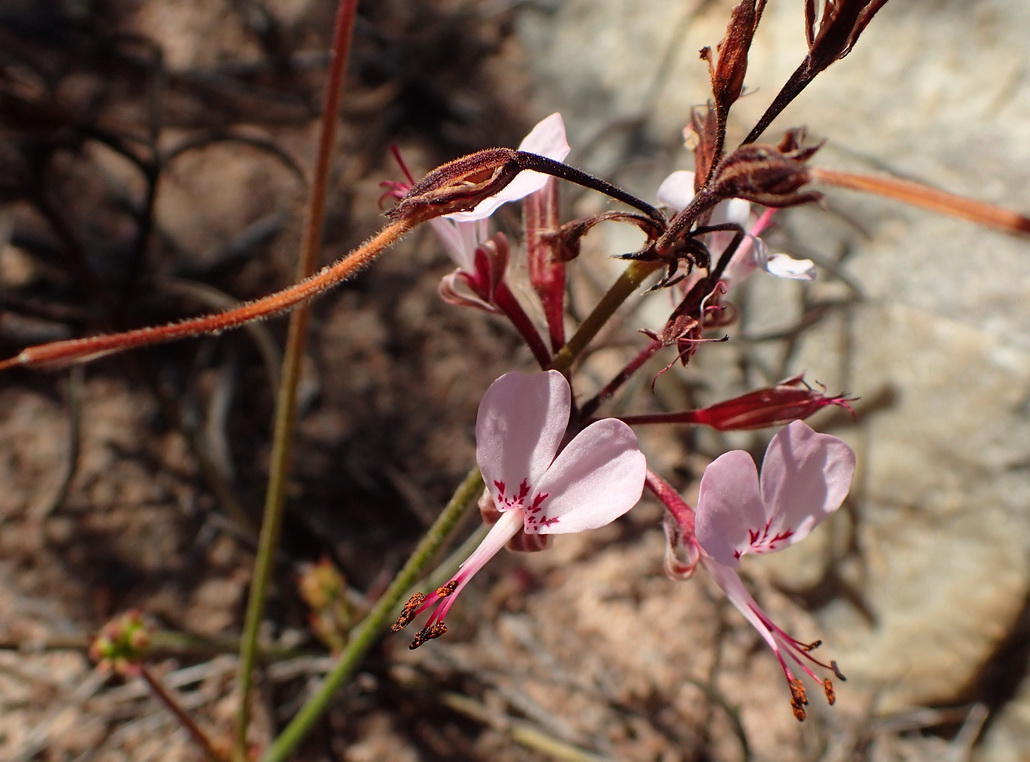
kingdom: Plantae
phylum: Tracheophyta
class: Magnoliopsida
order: Geraniales
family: Geraniaceae
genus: Pelargonium
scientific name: Pelargonium dipetalum
